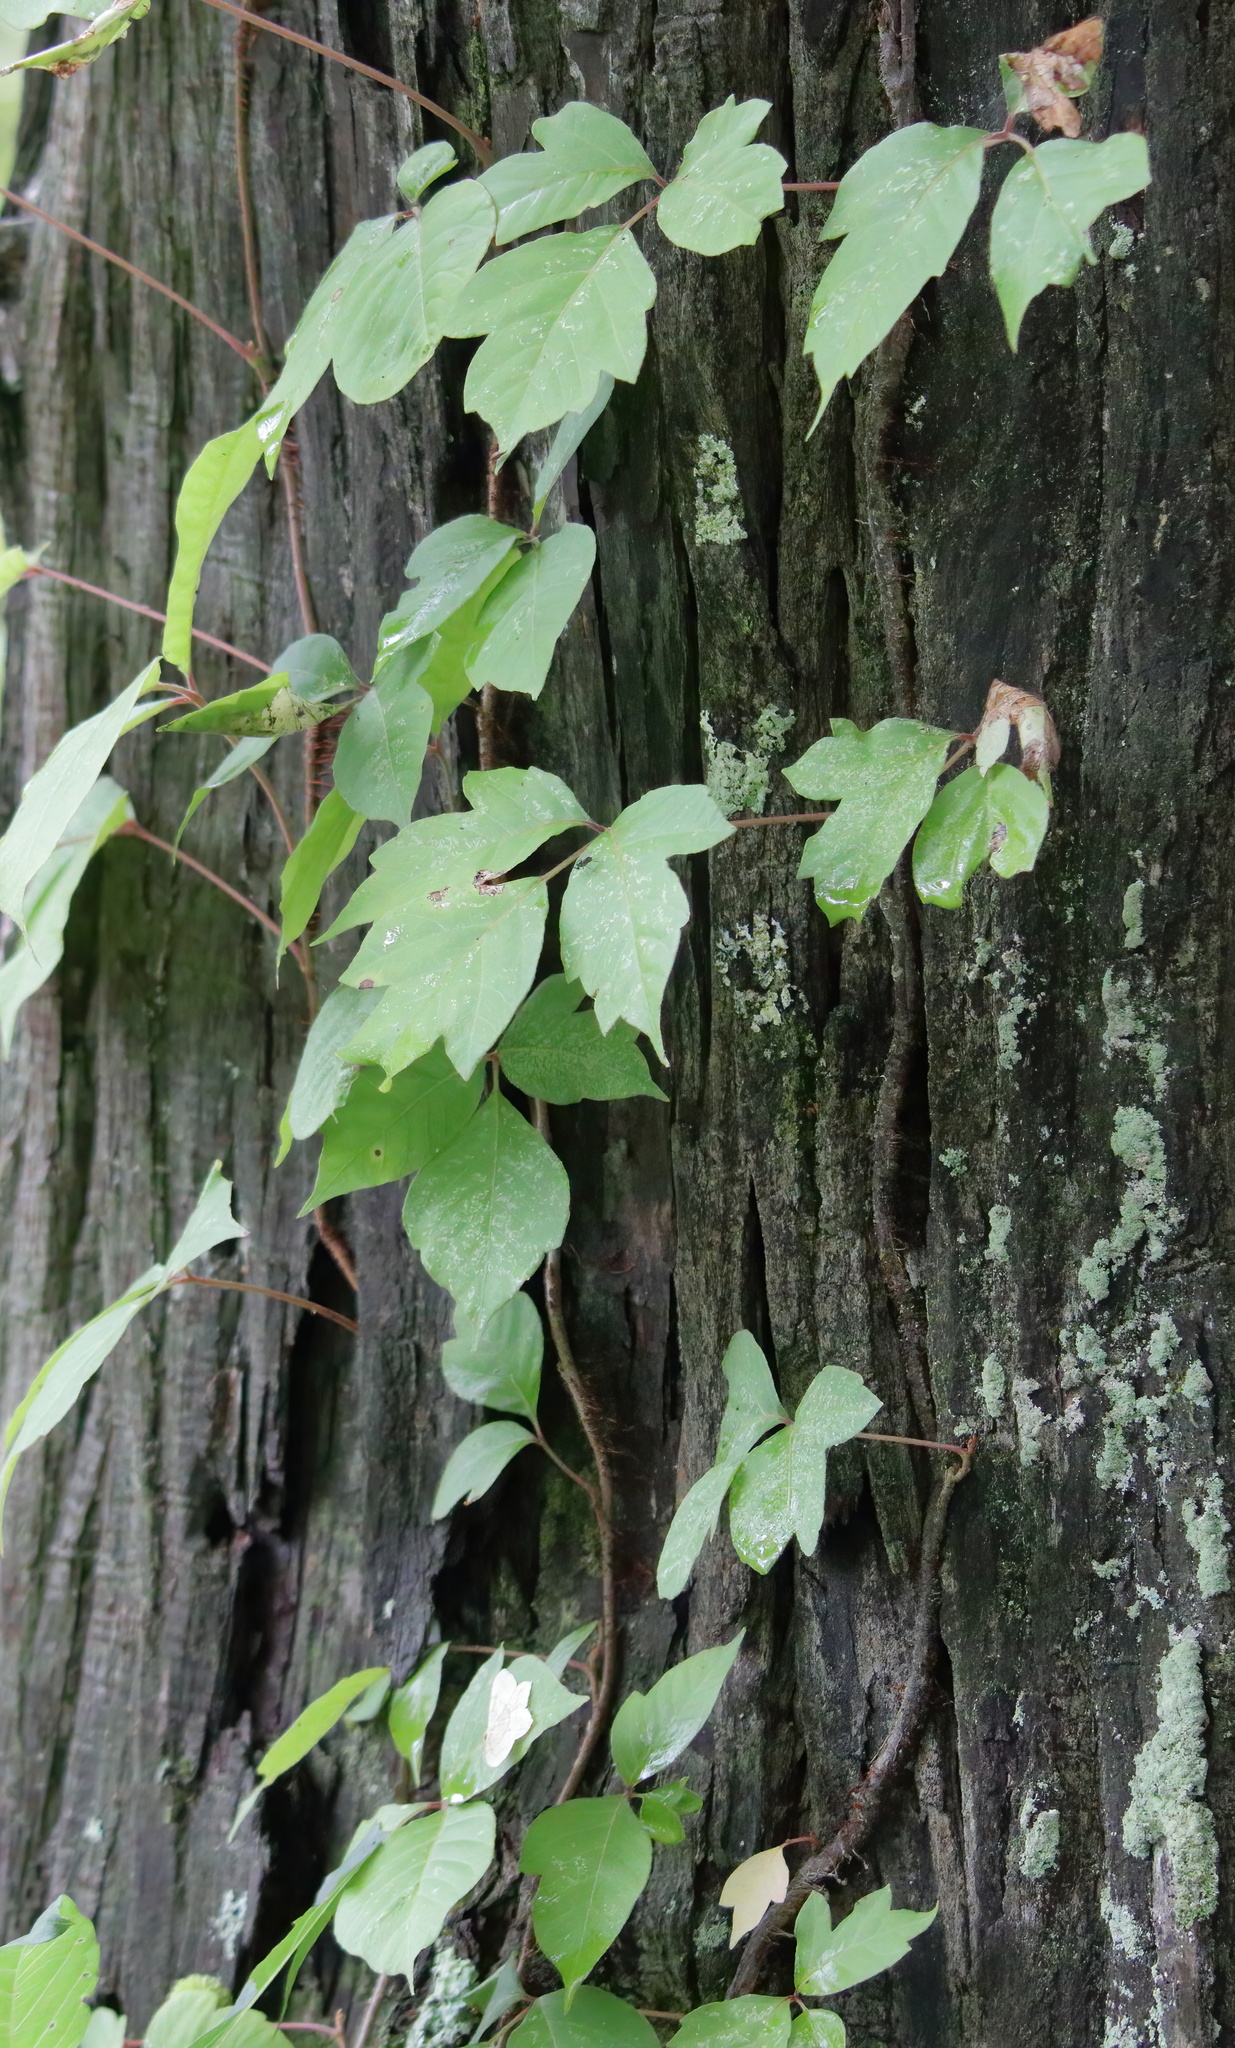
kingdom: Plantae
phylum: Tracheophyta
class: Magnoliopsida
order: Sapindales
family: Anacardiaceae
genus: Toxicodendron
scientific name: Toxicodendron radicans
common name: Poison ivy
